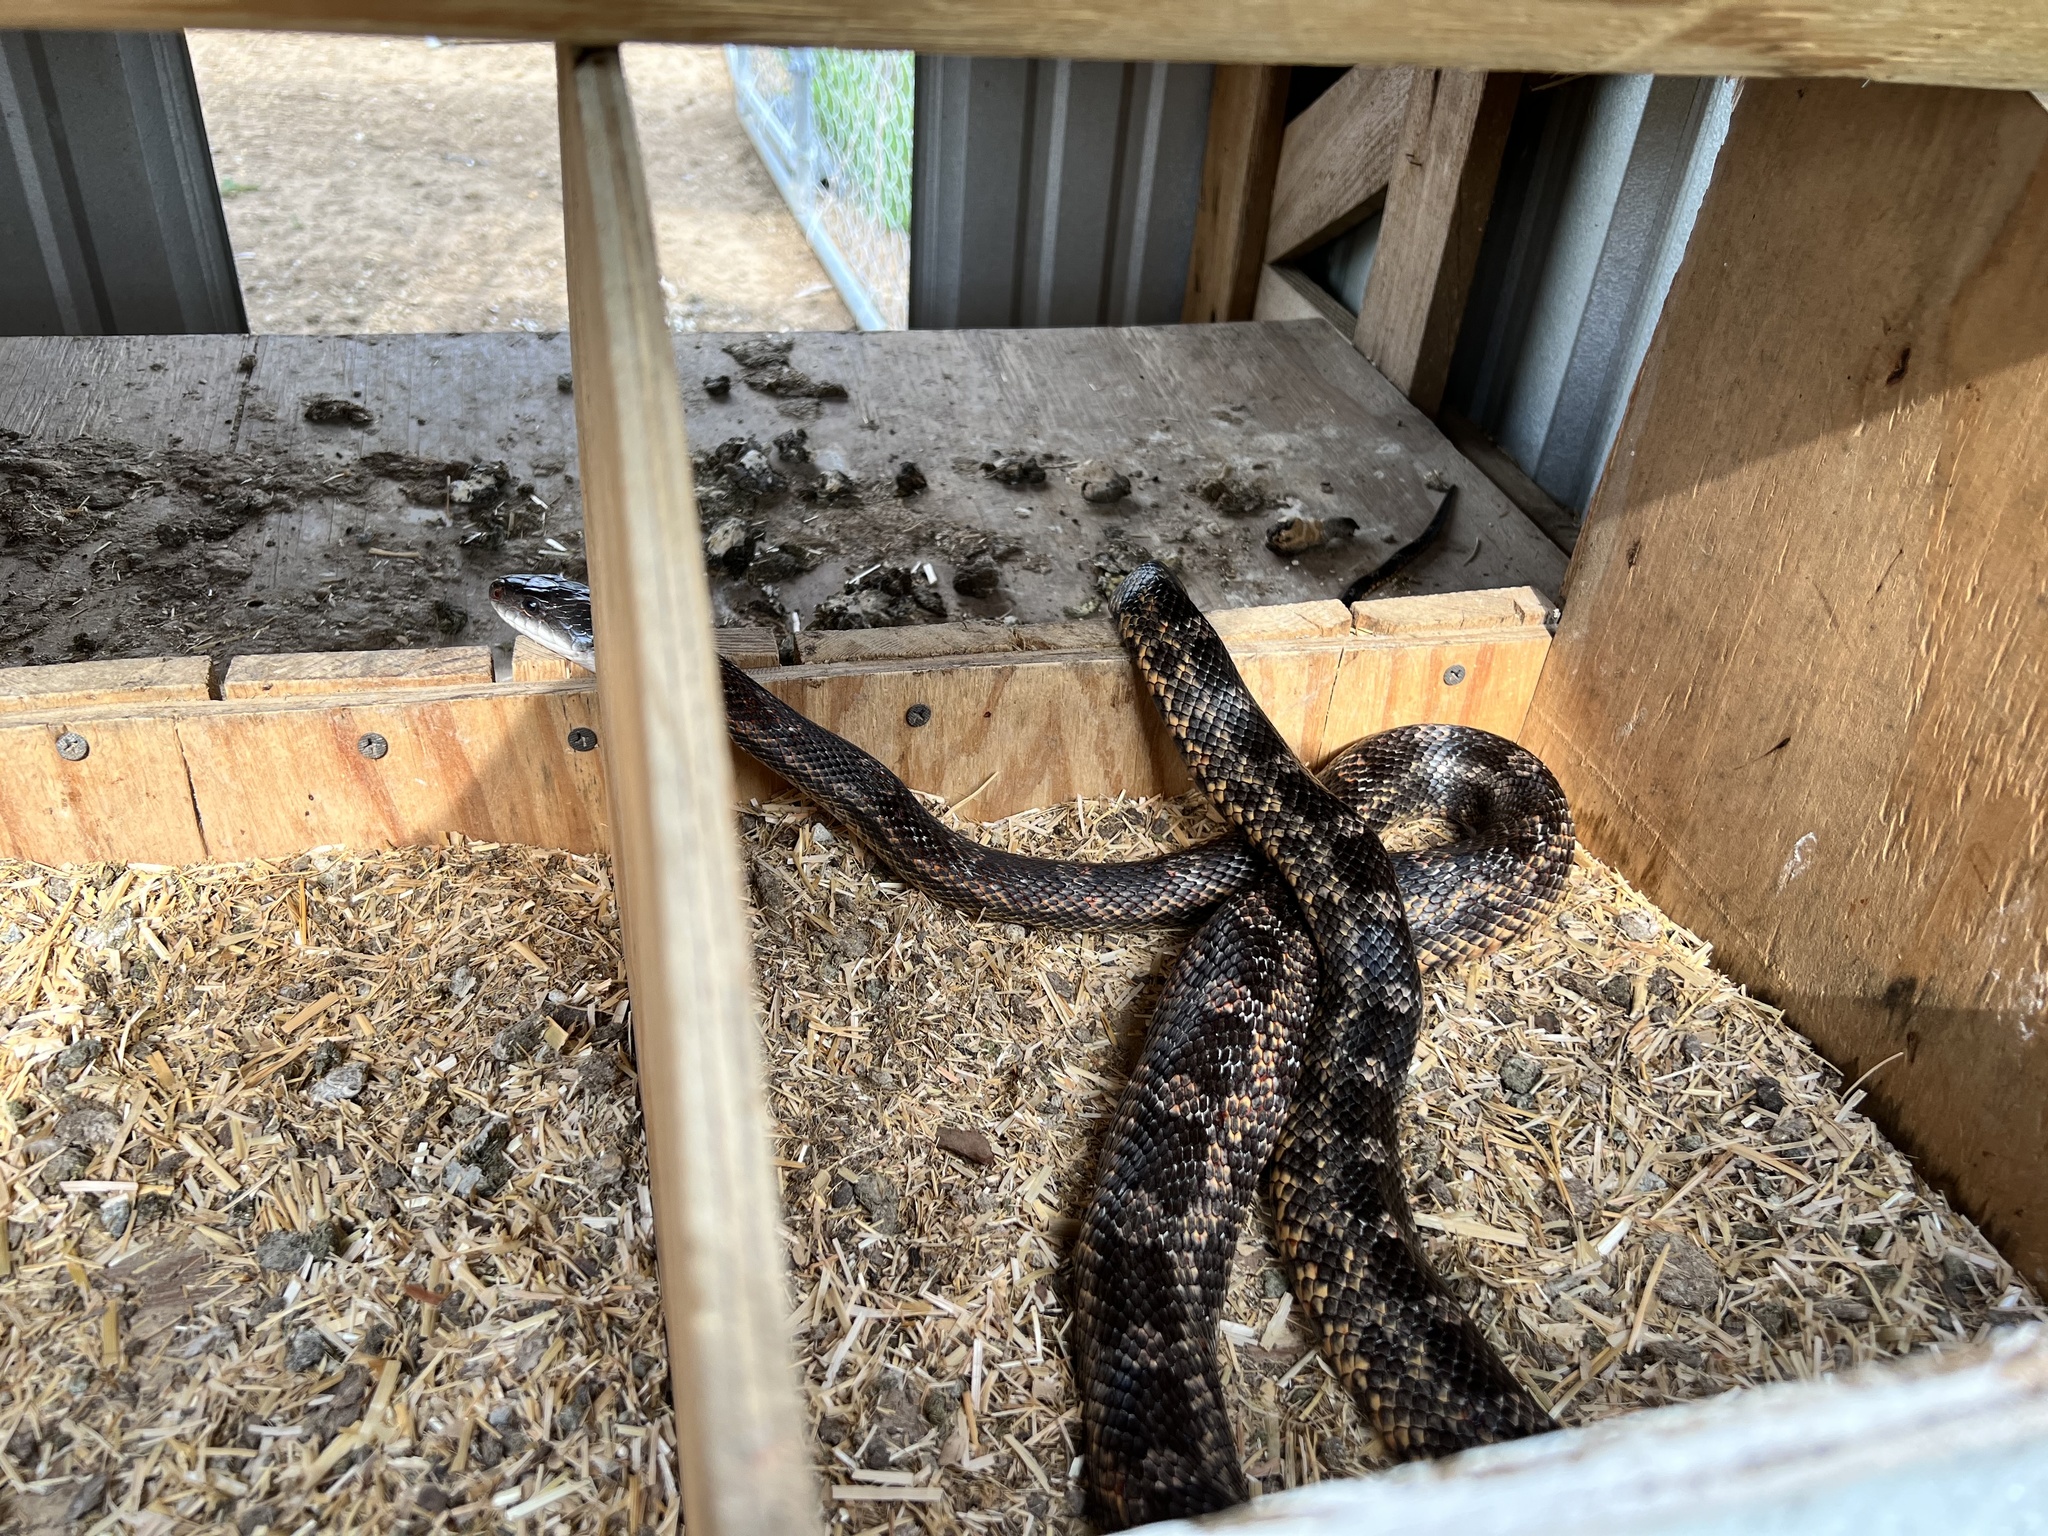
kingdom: Animalia
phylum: Chordata
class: Squamata
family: Colubridae
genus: Pantherophis
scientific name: Pantherophis obsoletus
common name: Black rat snake
